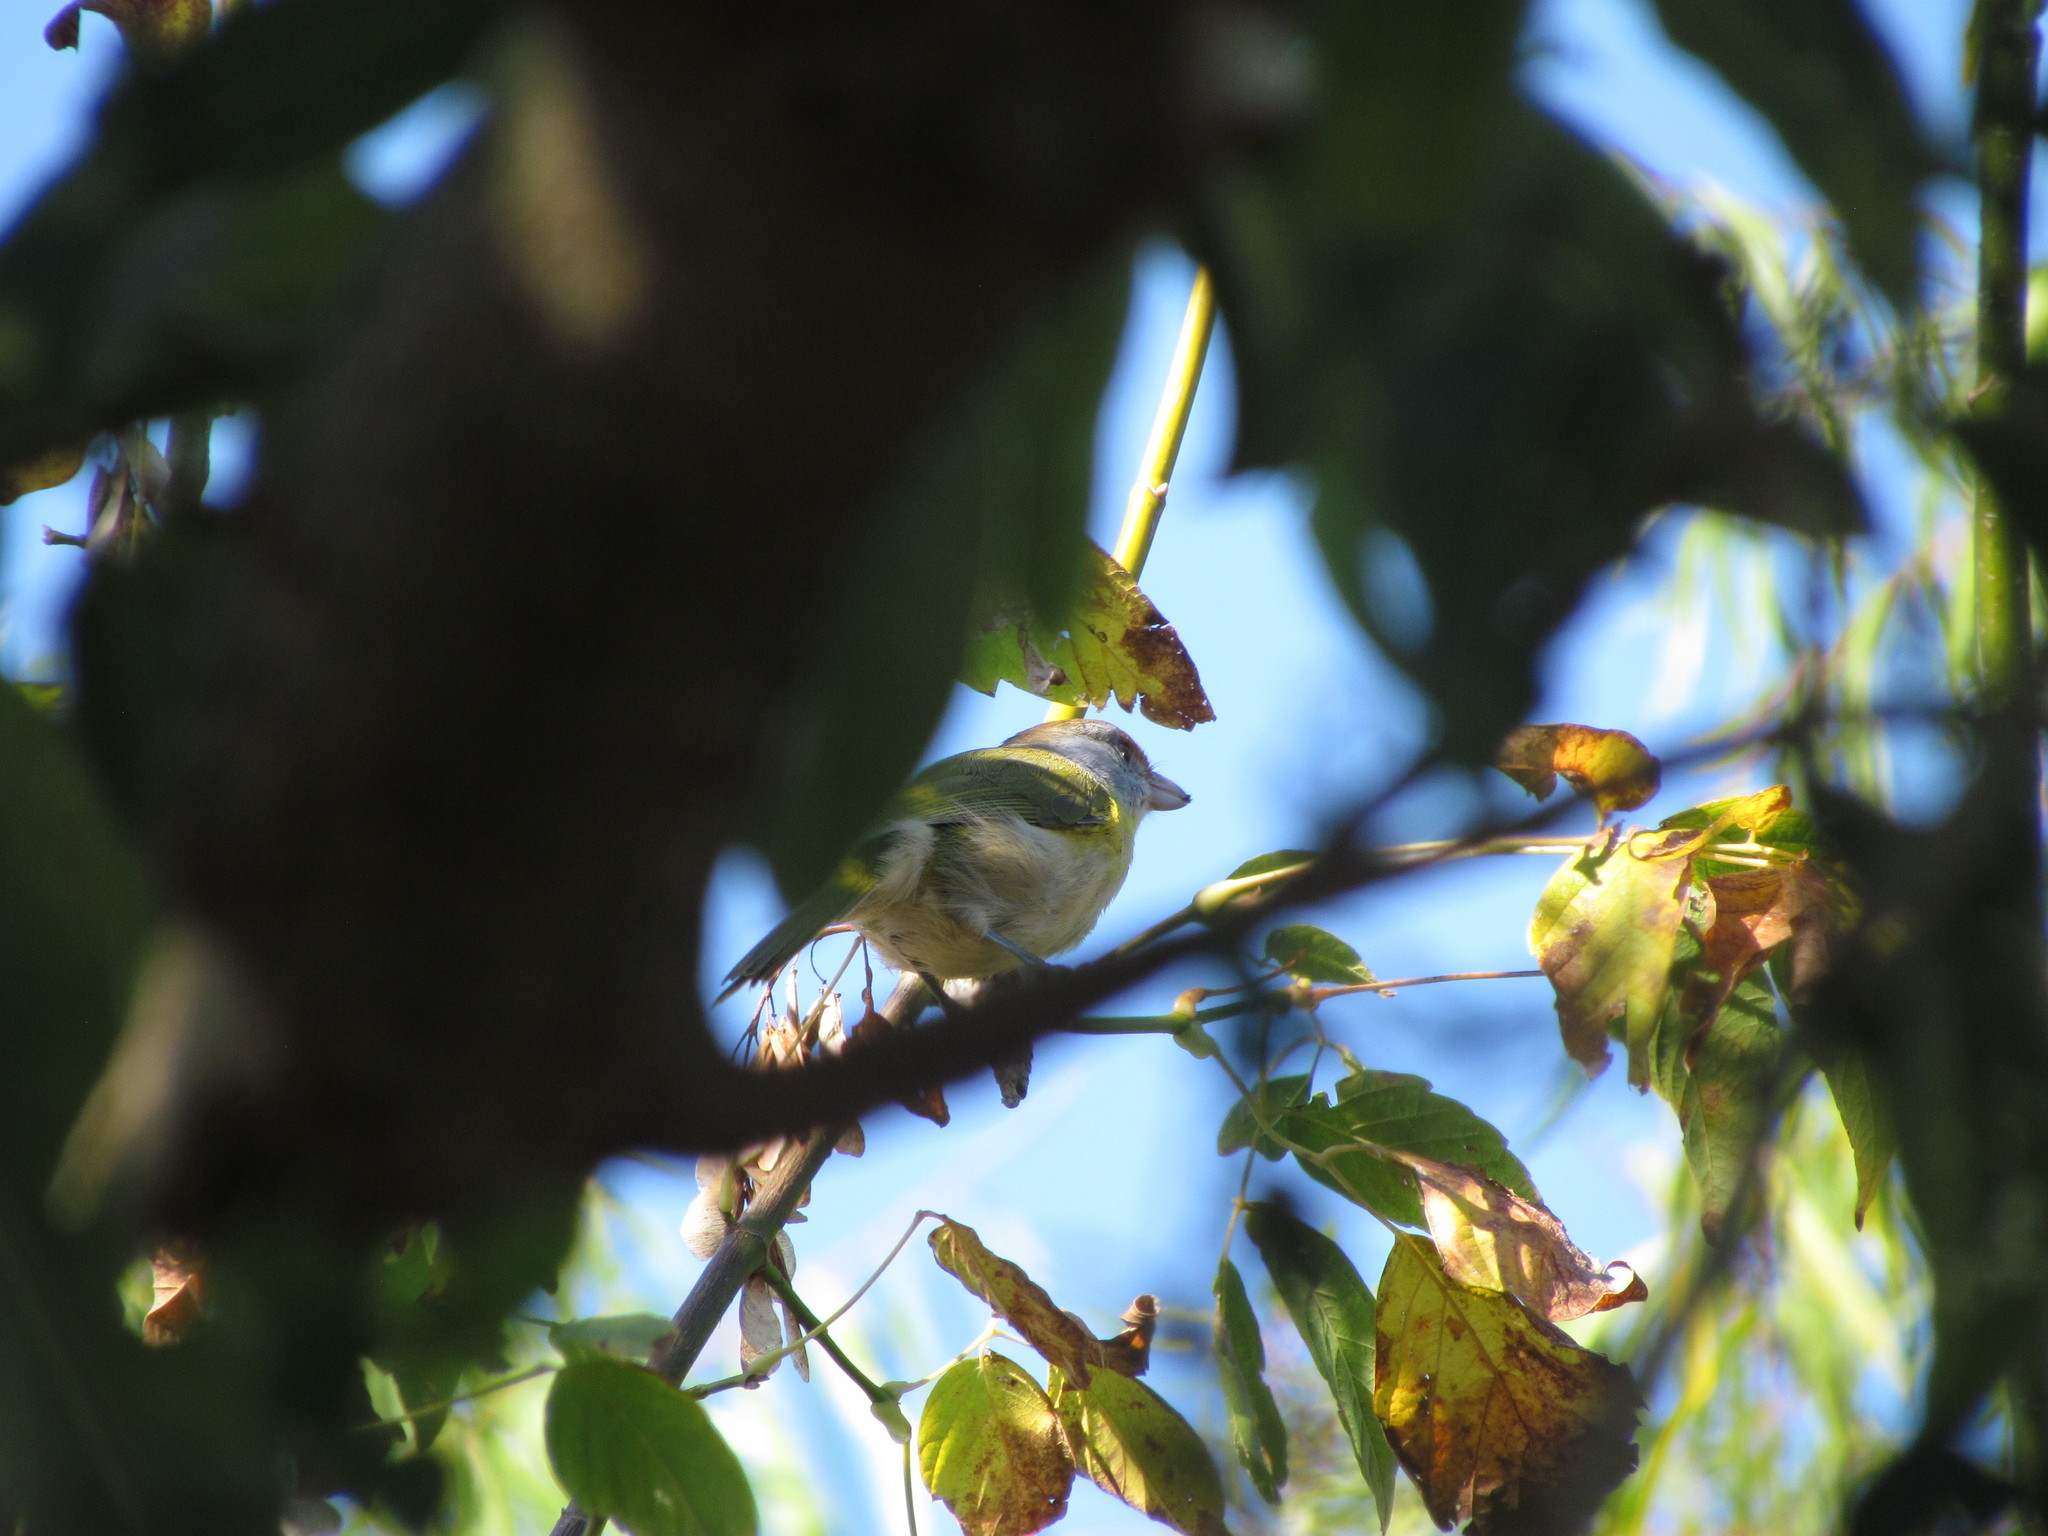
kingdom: Animalia
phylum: Chordata
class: Aves
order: Passeriformes
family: Vireonidae
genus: Cyclarhis
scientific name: Cyclarhis gujanensis
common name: Rufous-browed peppershrike
